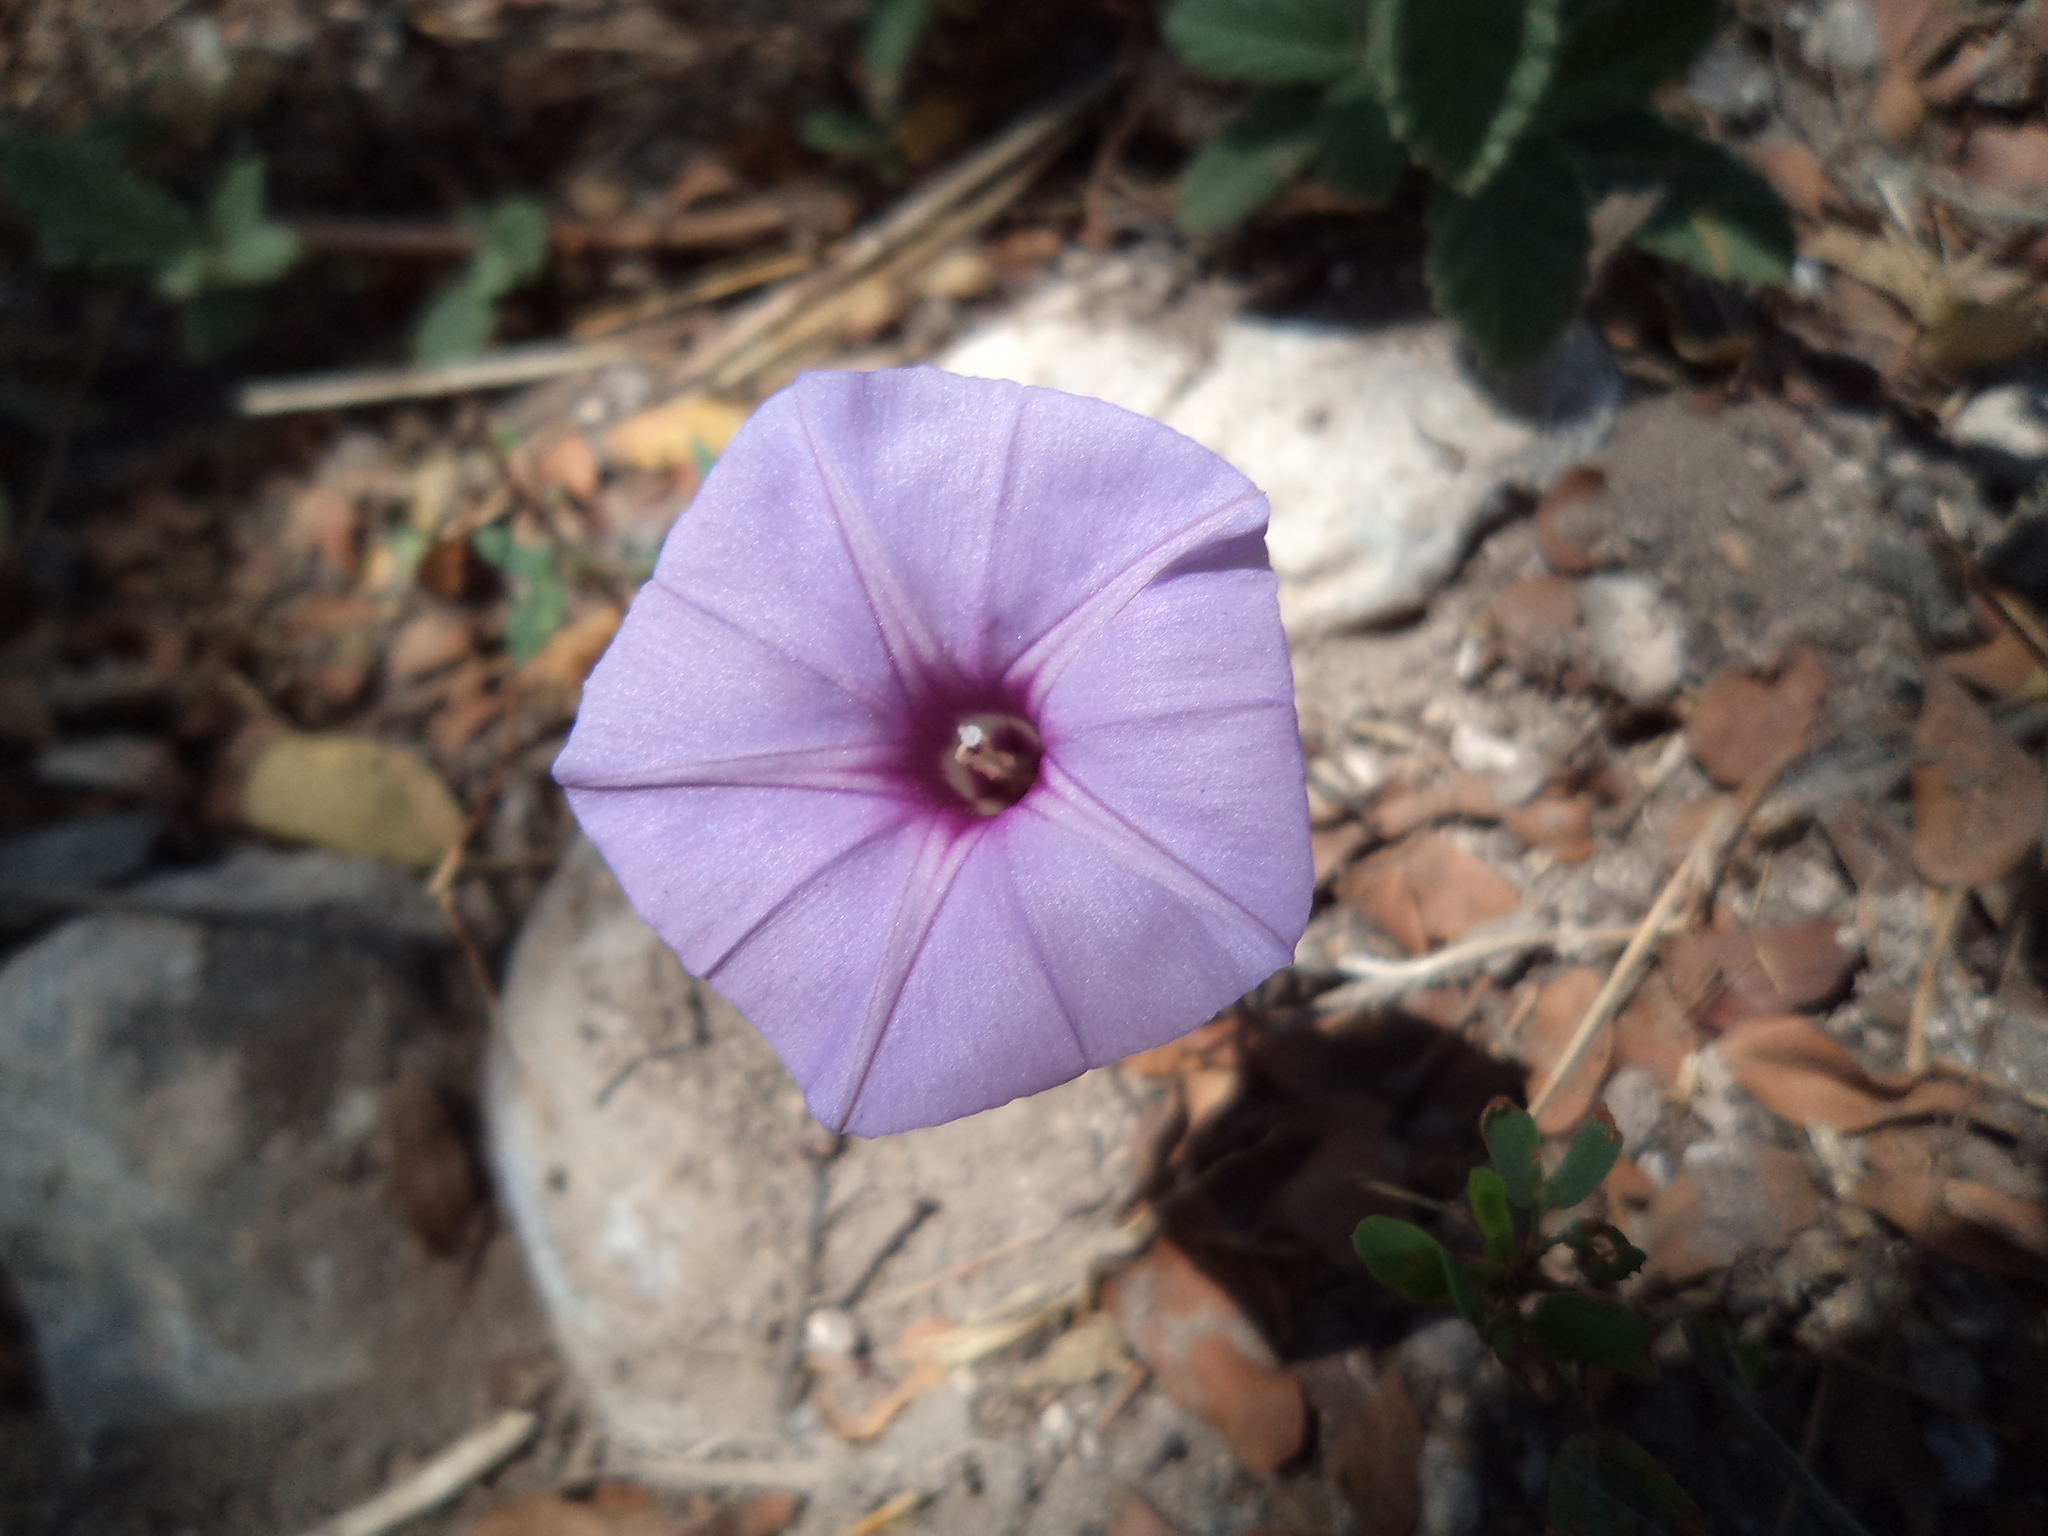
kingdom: Plantae
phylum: Tracheophyta
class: Magnoliopsida
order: Solanales
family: Convolvulaceae
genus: Ipomoea
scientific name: Ipomoea ternifolia
